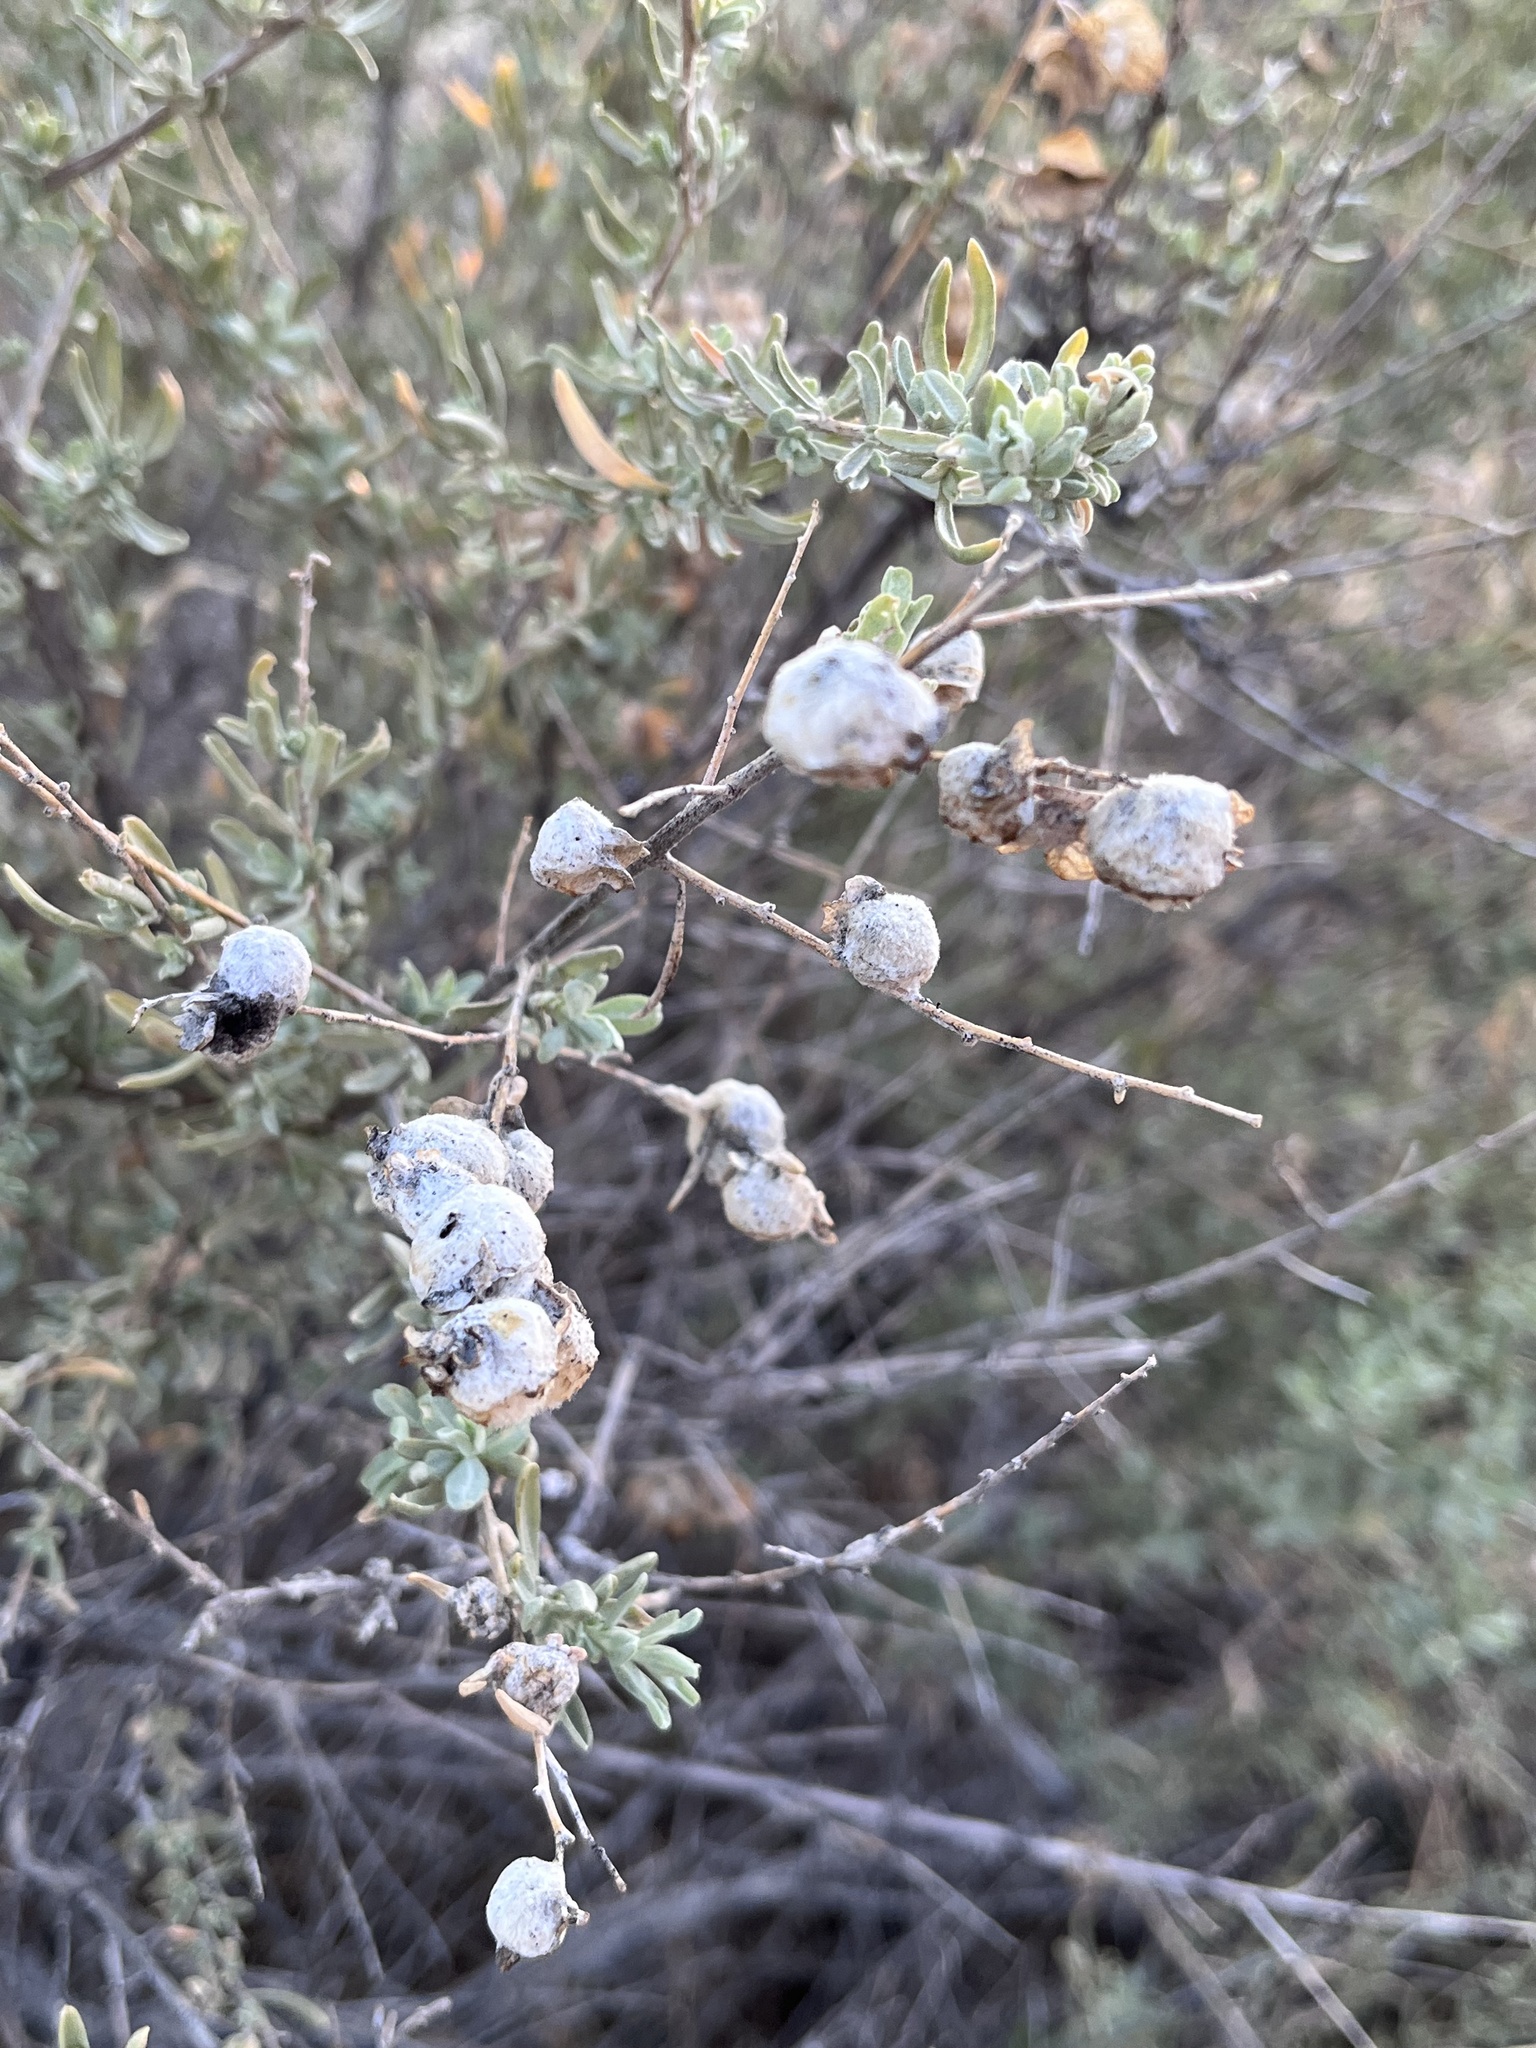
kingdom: Animalia
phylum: Arthropoda
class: Insecta
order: Diptera
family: Cecidomyiidae
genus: Asphondylia
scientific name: Asphondylia neomexicana
